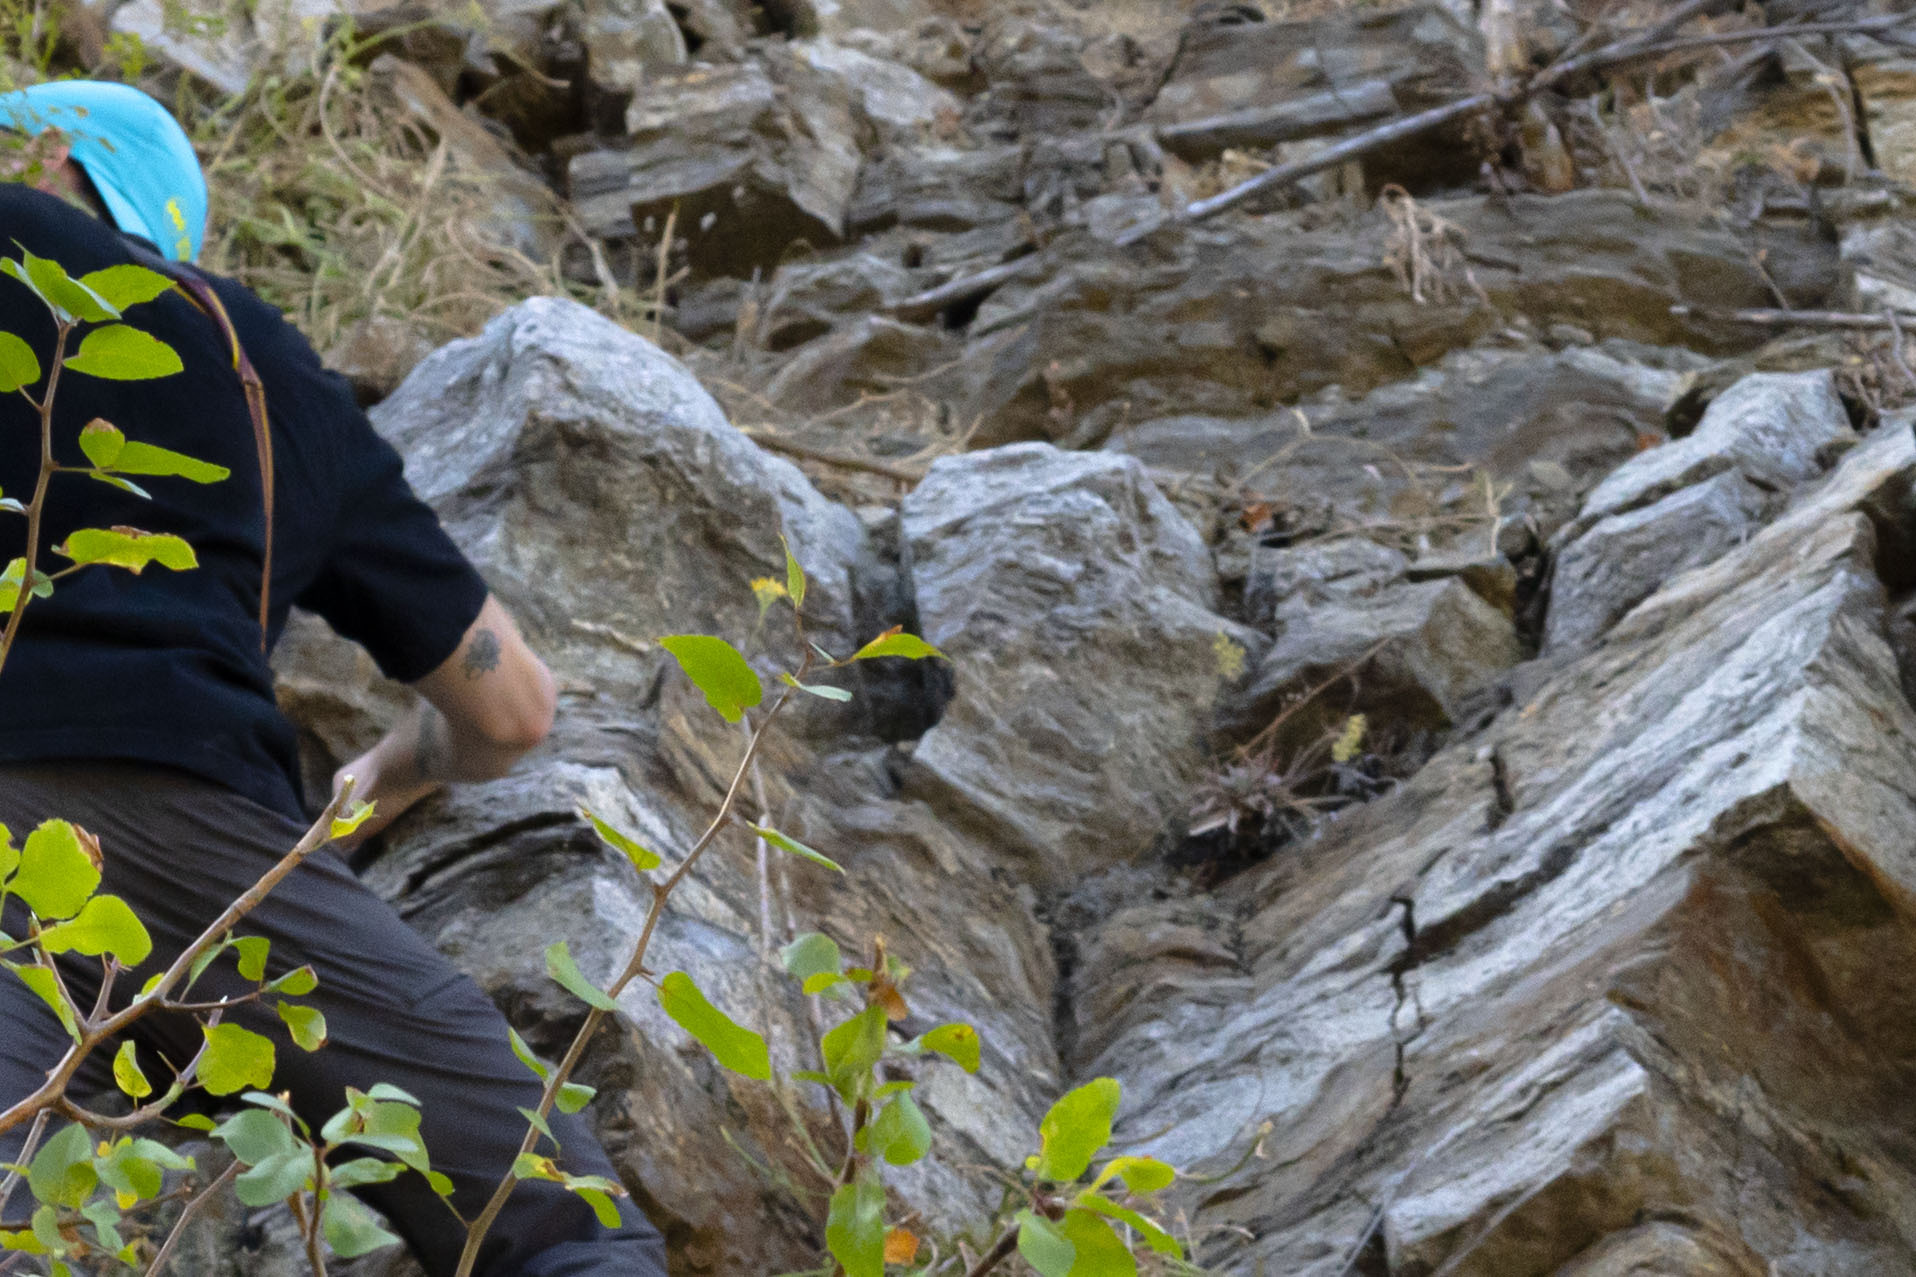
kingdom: Plantae
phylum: Tracheophyta
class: Magnoliopsida
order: Saxifragales
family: Crassulaceae
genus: Dudleya
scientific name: Dudleya nubigena
